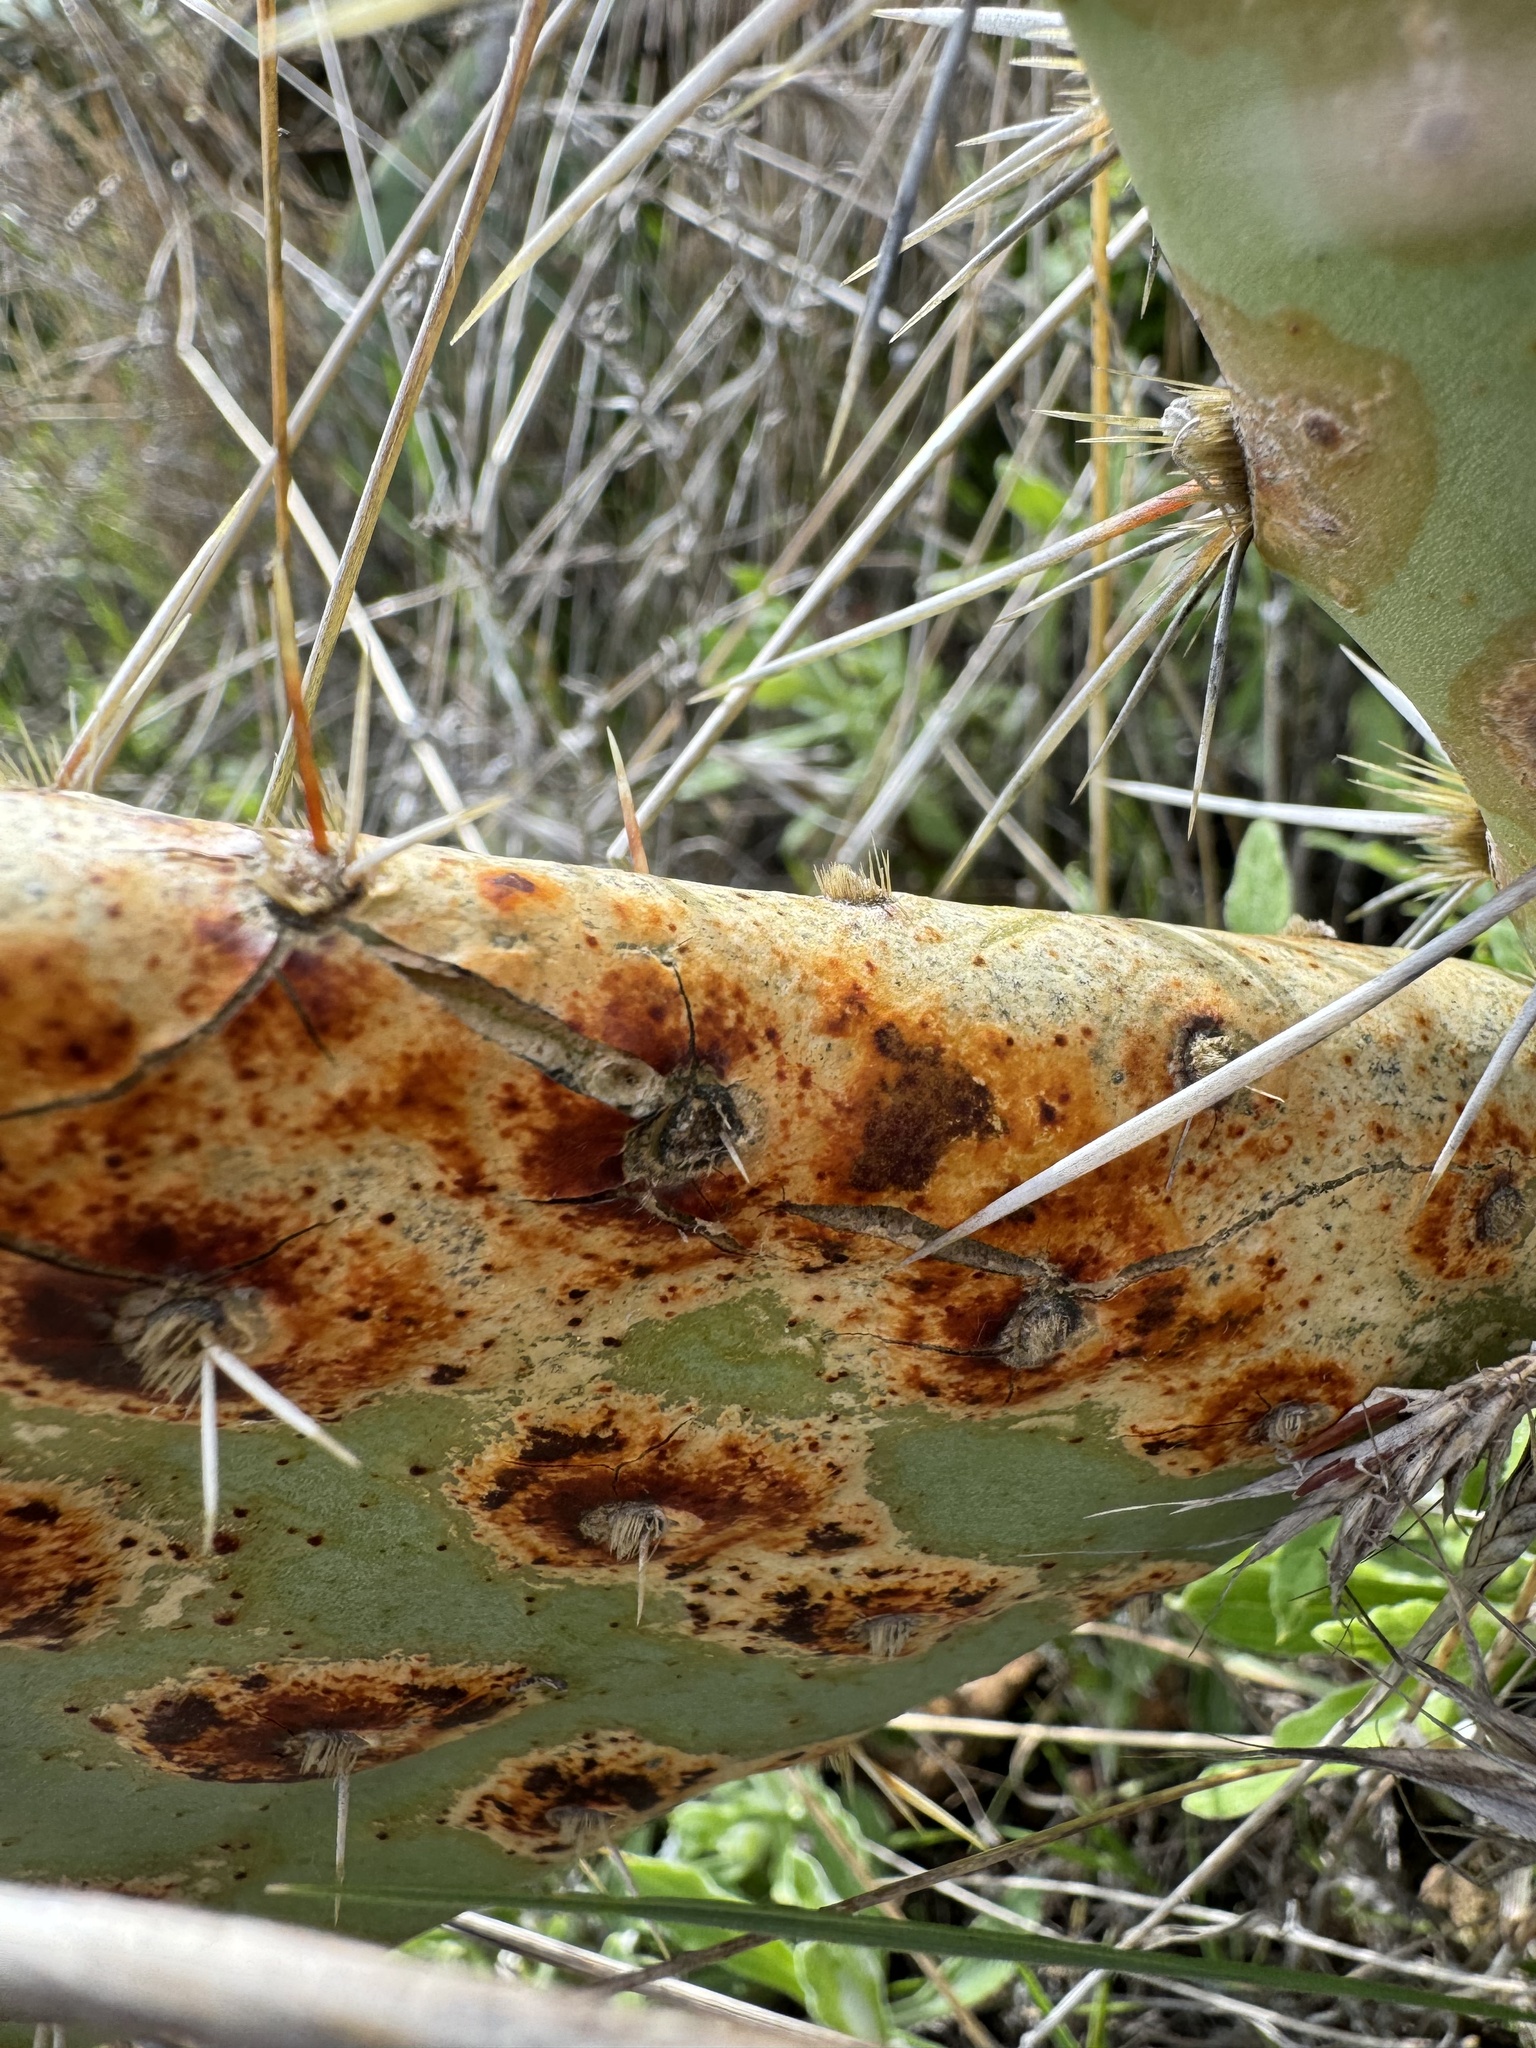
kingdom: Plantae
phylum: Tracheophyta
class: Magnoliopsida
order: Caryophyllales
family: Cactaceae
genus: Opuntia
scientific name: Opuntia littoralis
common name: Coastal prickly-pear
